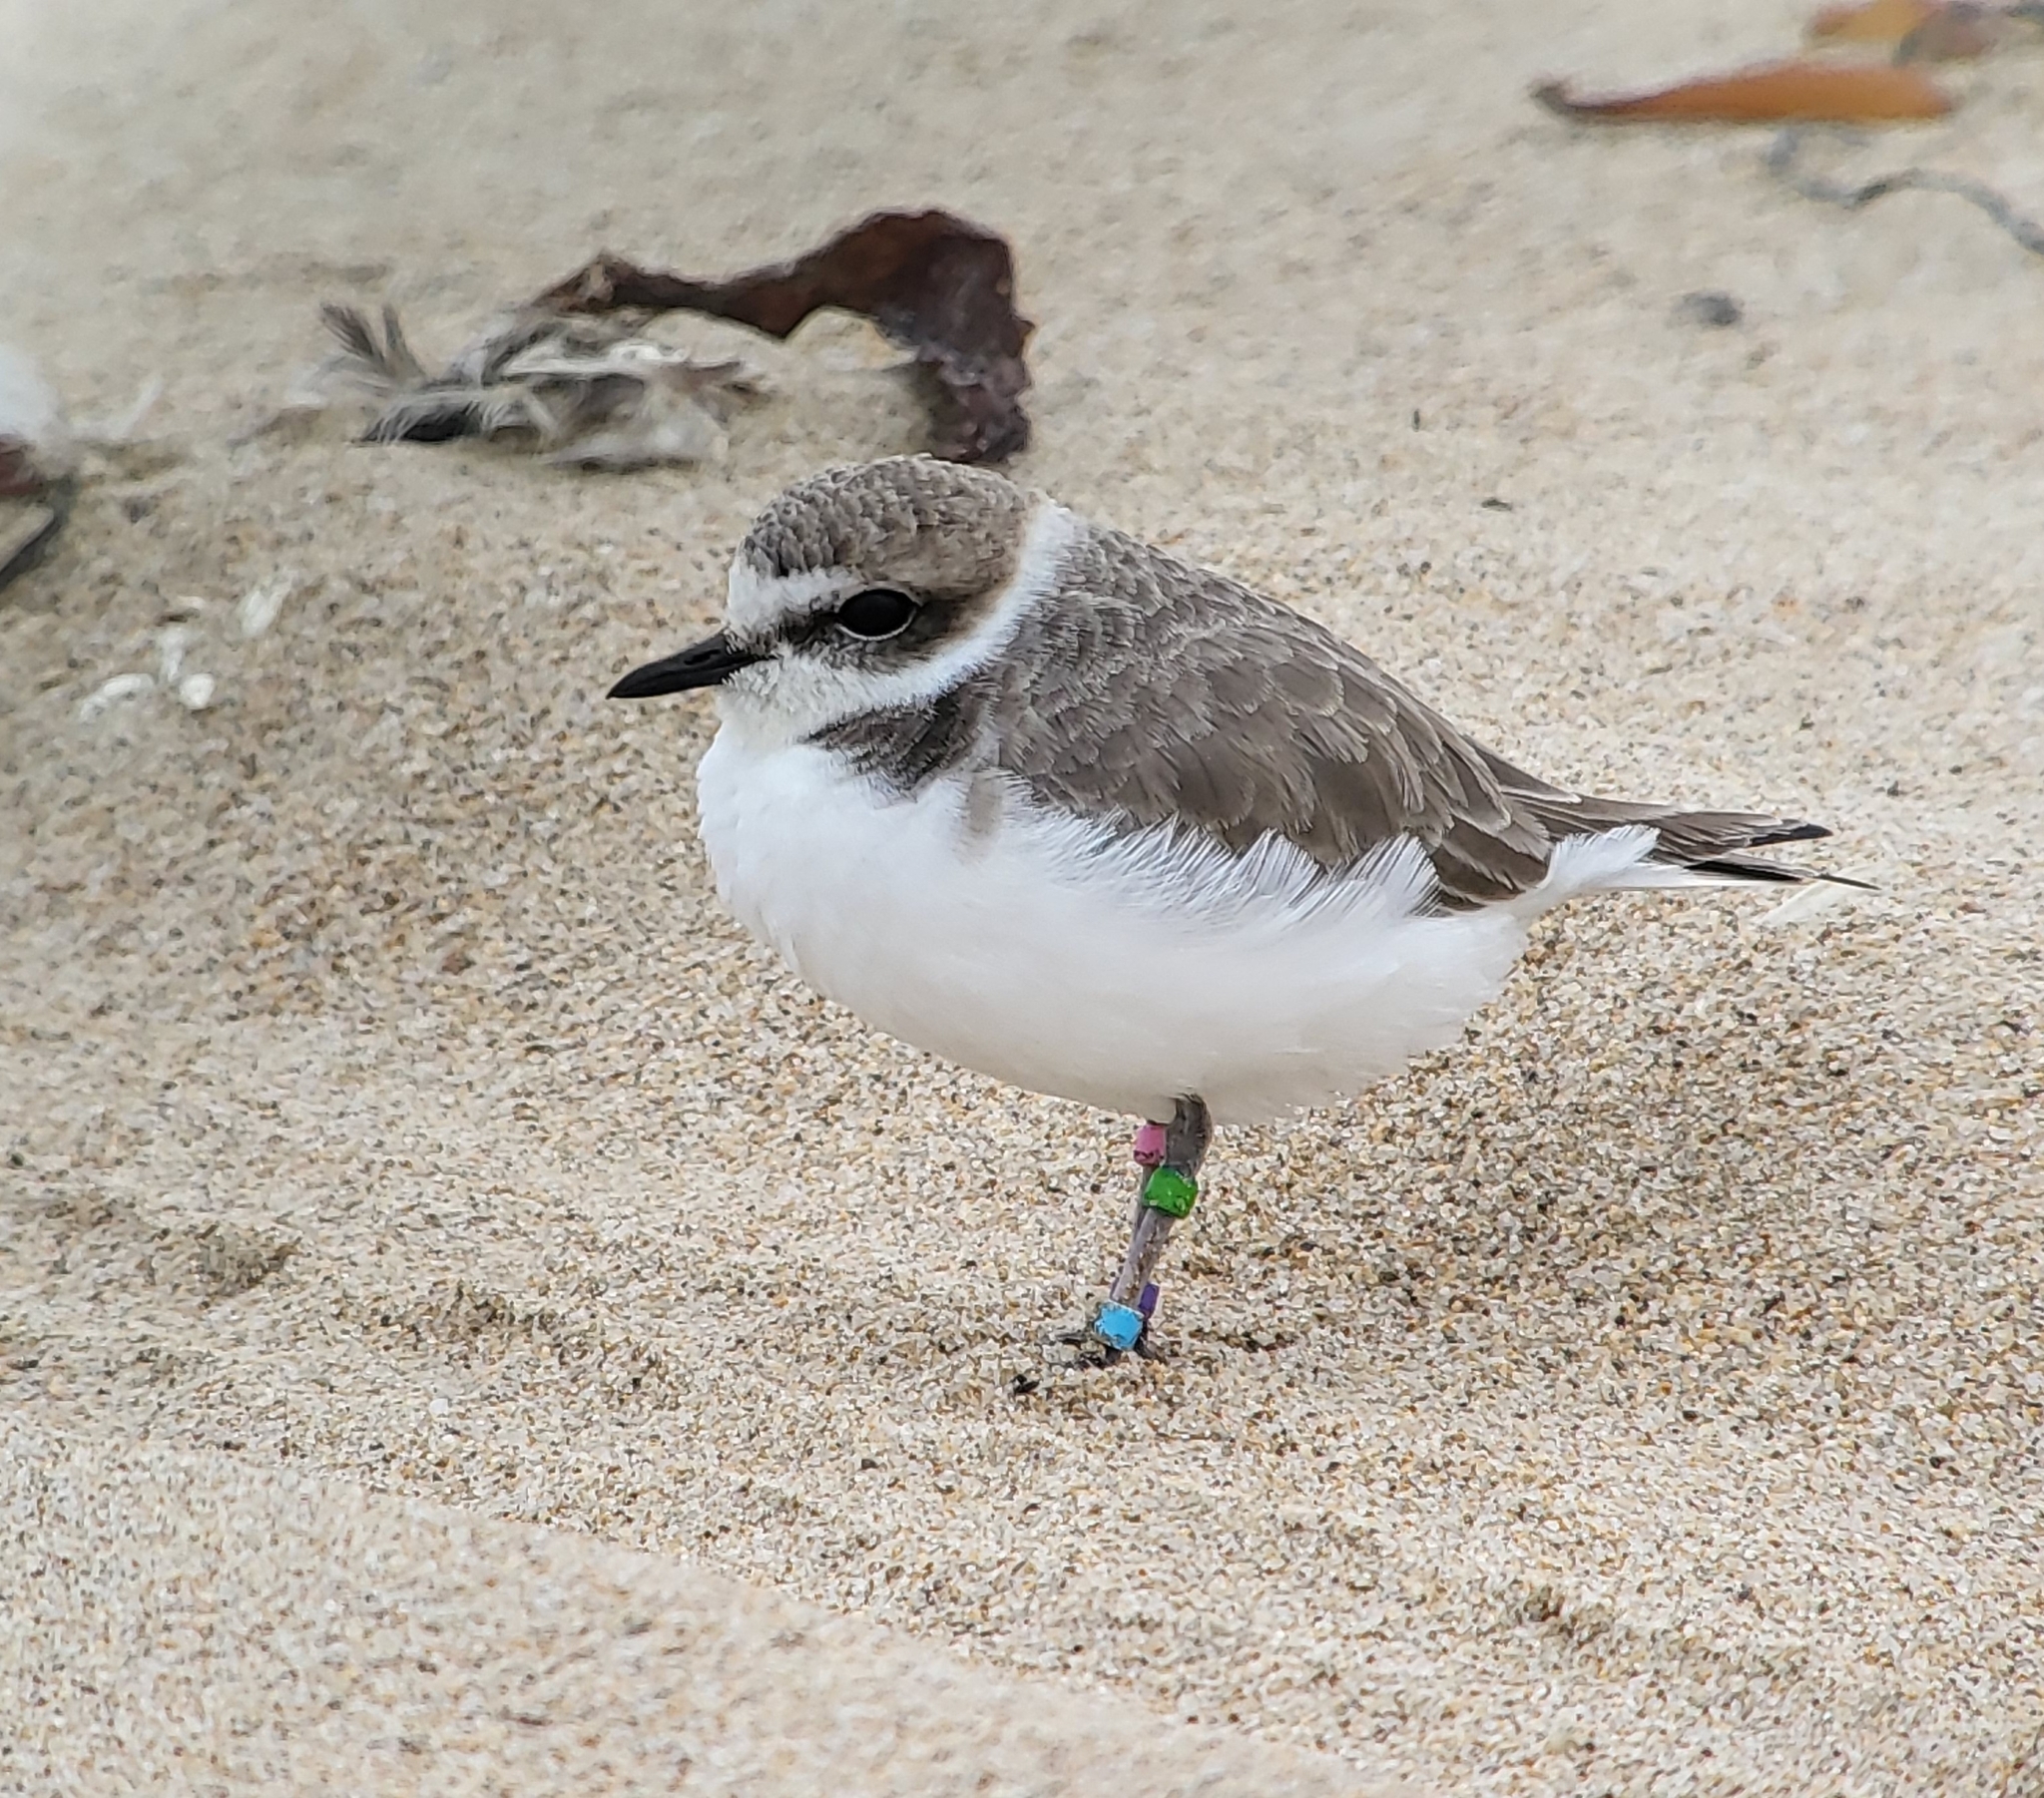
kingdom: Animalia
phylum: Chordata
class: Aves
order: Charadriiformes
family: Charadriidae
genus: Anarhynchus
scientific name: Anarhynchus
